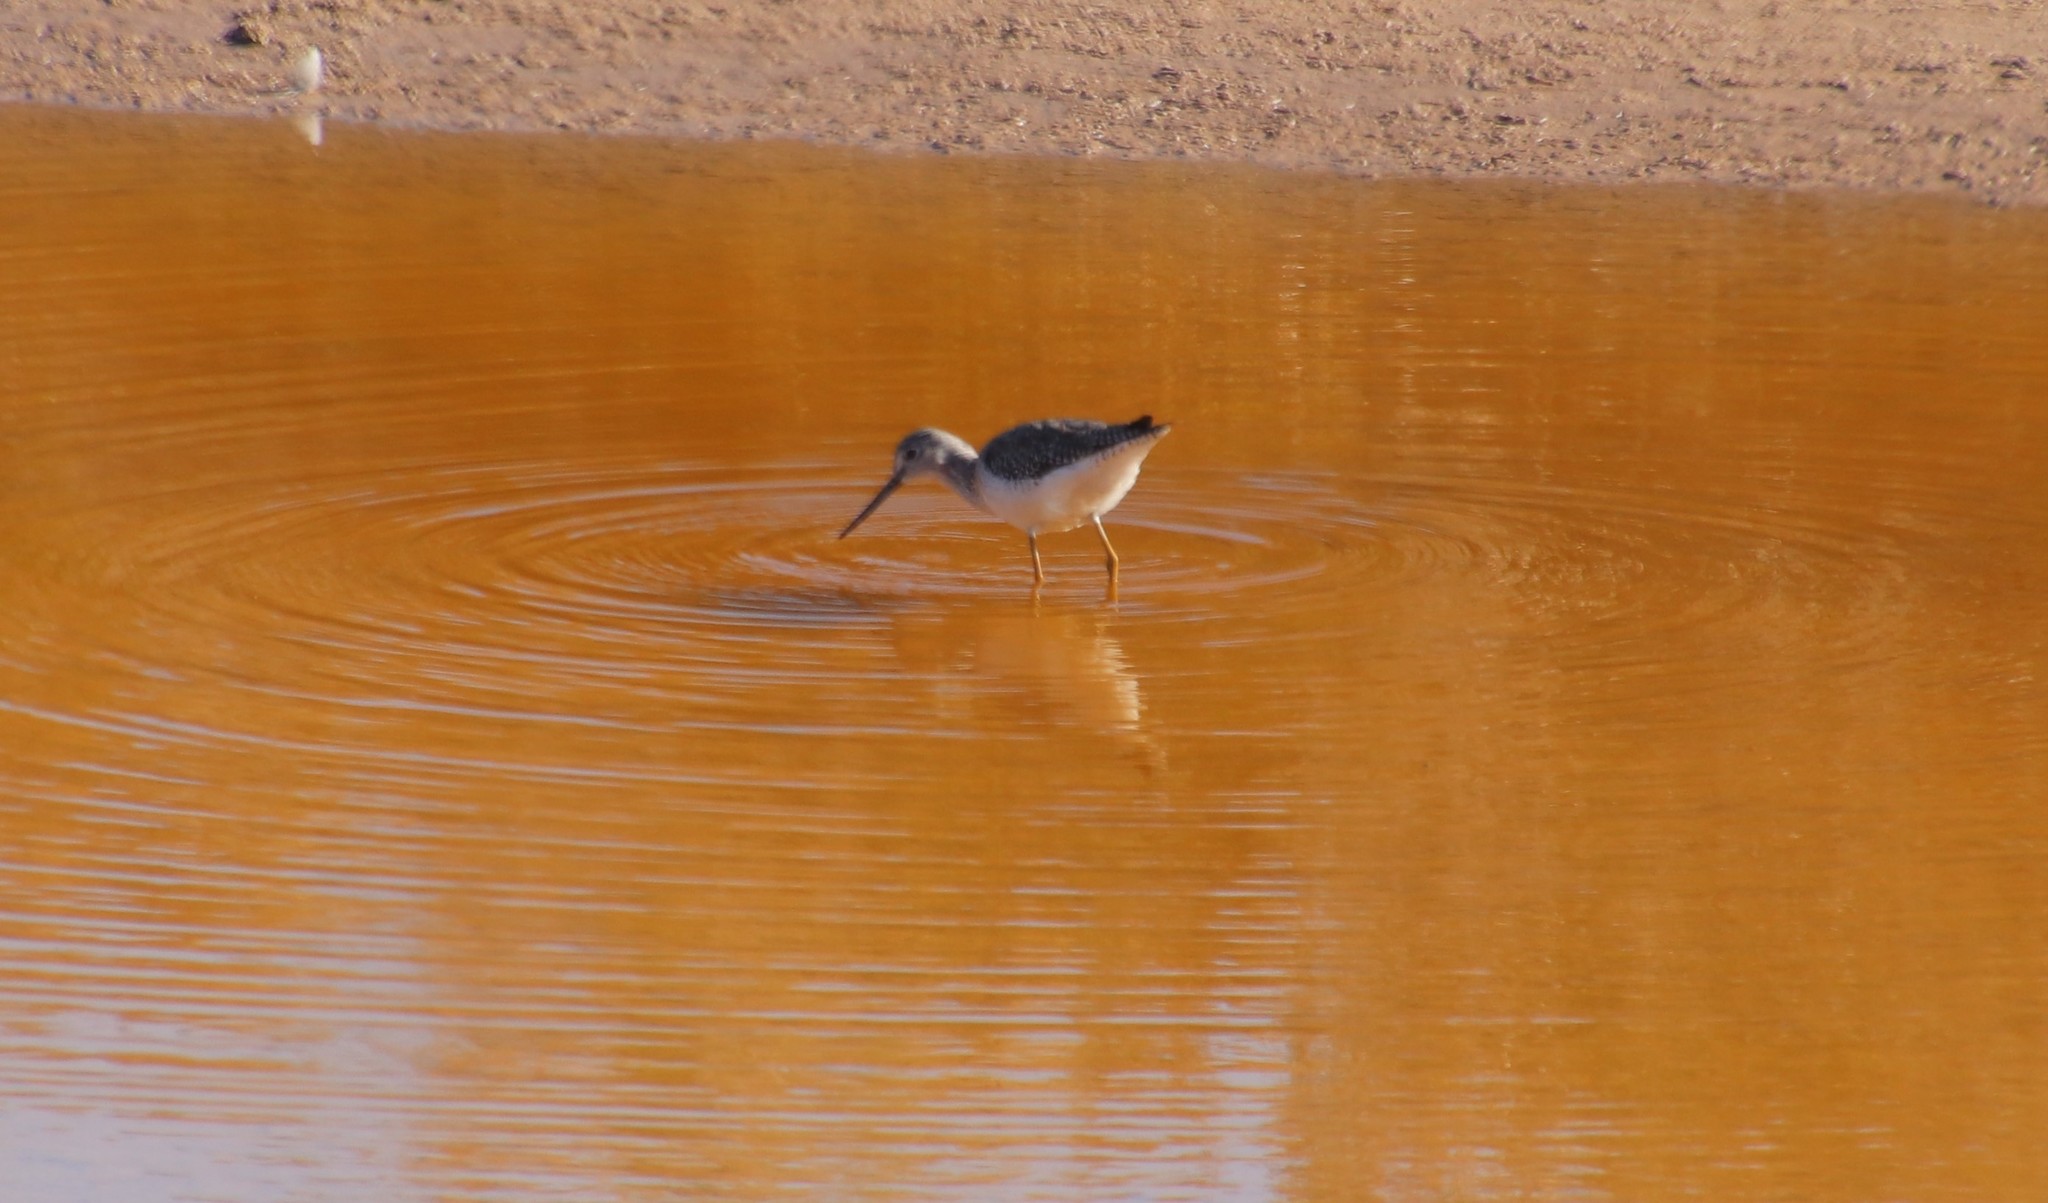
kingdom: Animalia
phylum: Chordata
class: Aves
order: Charadriiformes
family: Scolopacidae
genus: Tringa
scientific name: Tringa melanoleuca
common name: Greater yellowlegs
